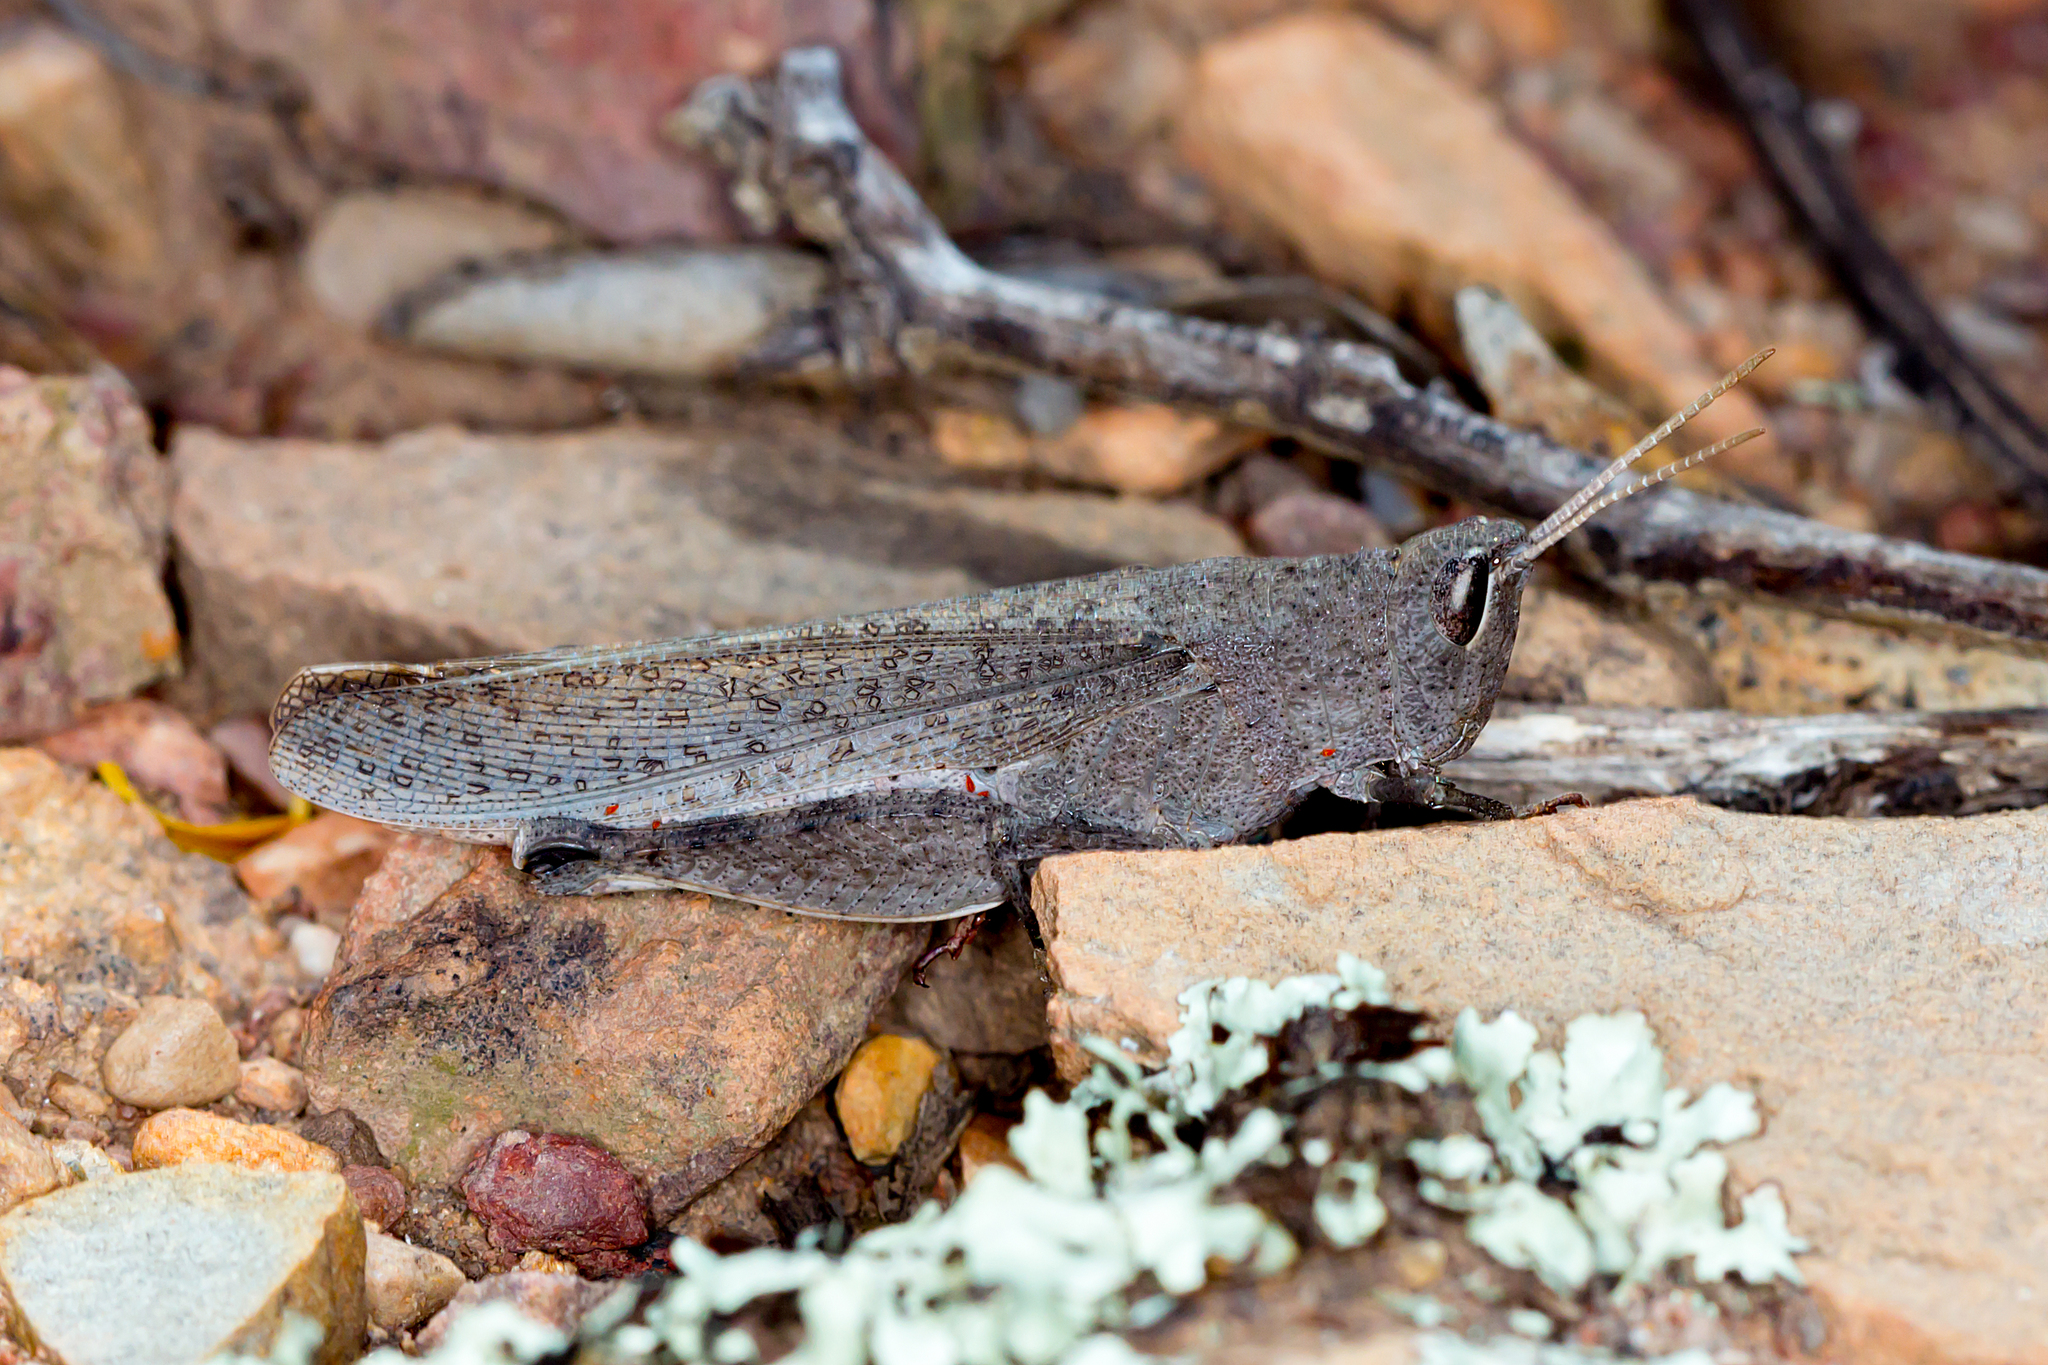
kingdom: Animalia
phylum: Arthropoda
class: Insecta
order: Orthoptera
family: Acrididae
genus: Goniaea
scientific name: Goniaea opomaloides
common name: Mimetic gumleaf grasshopper
